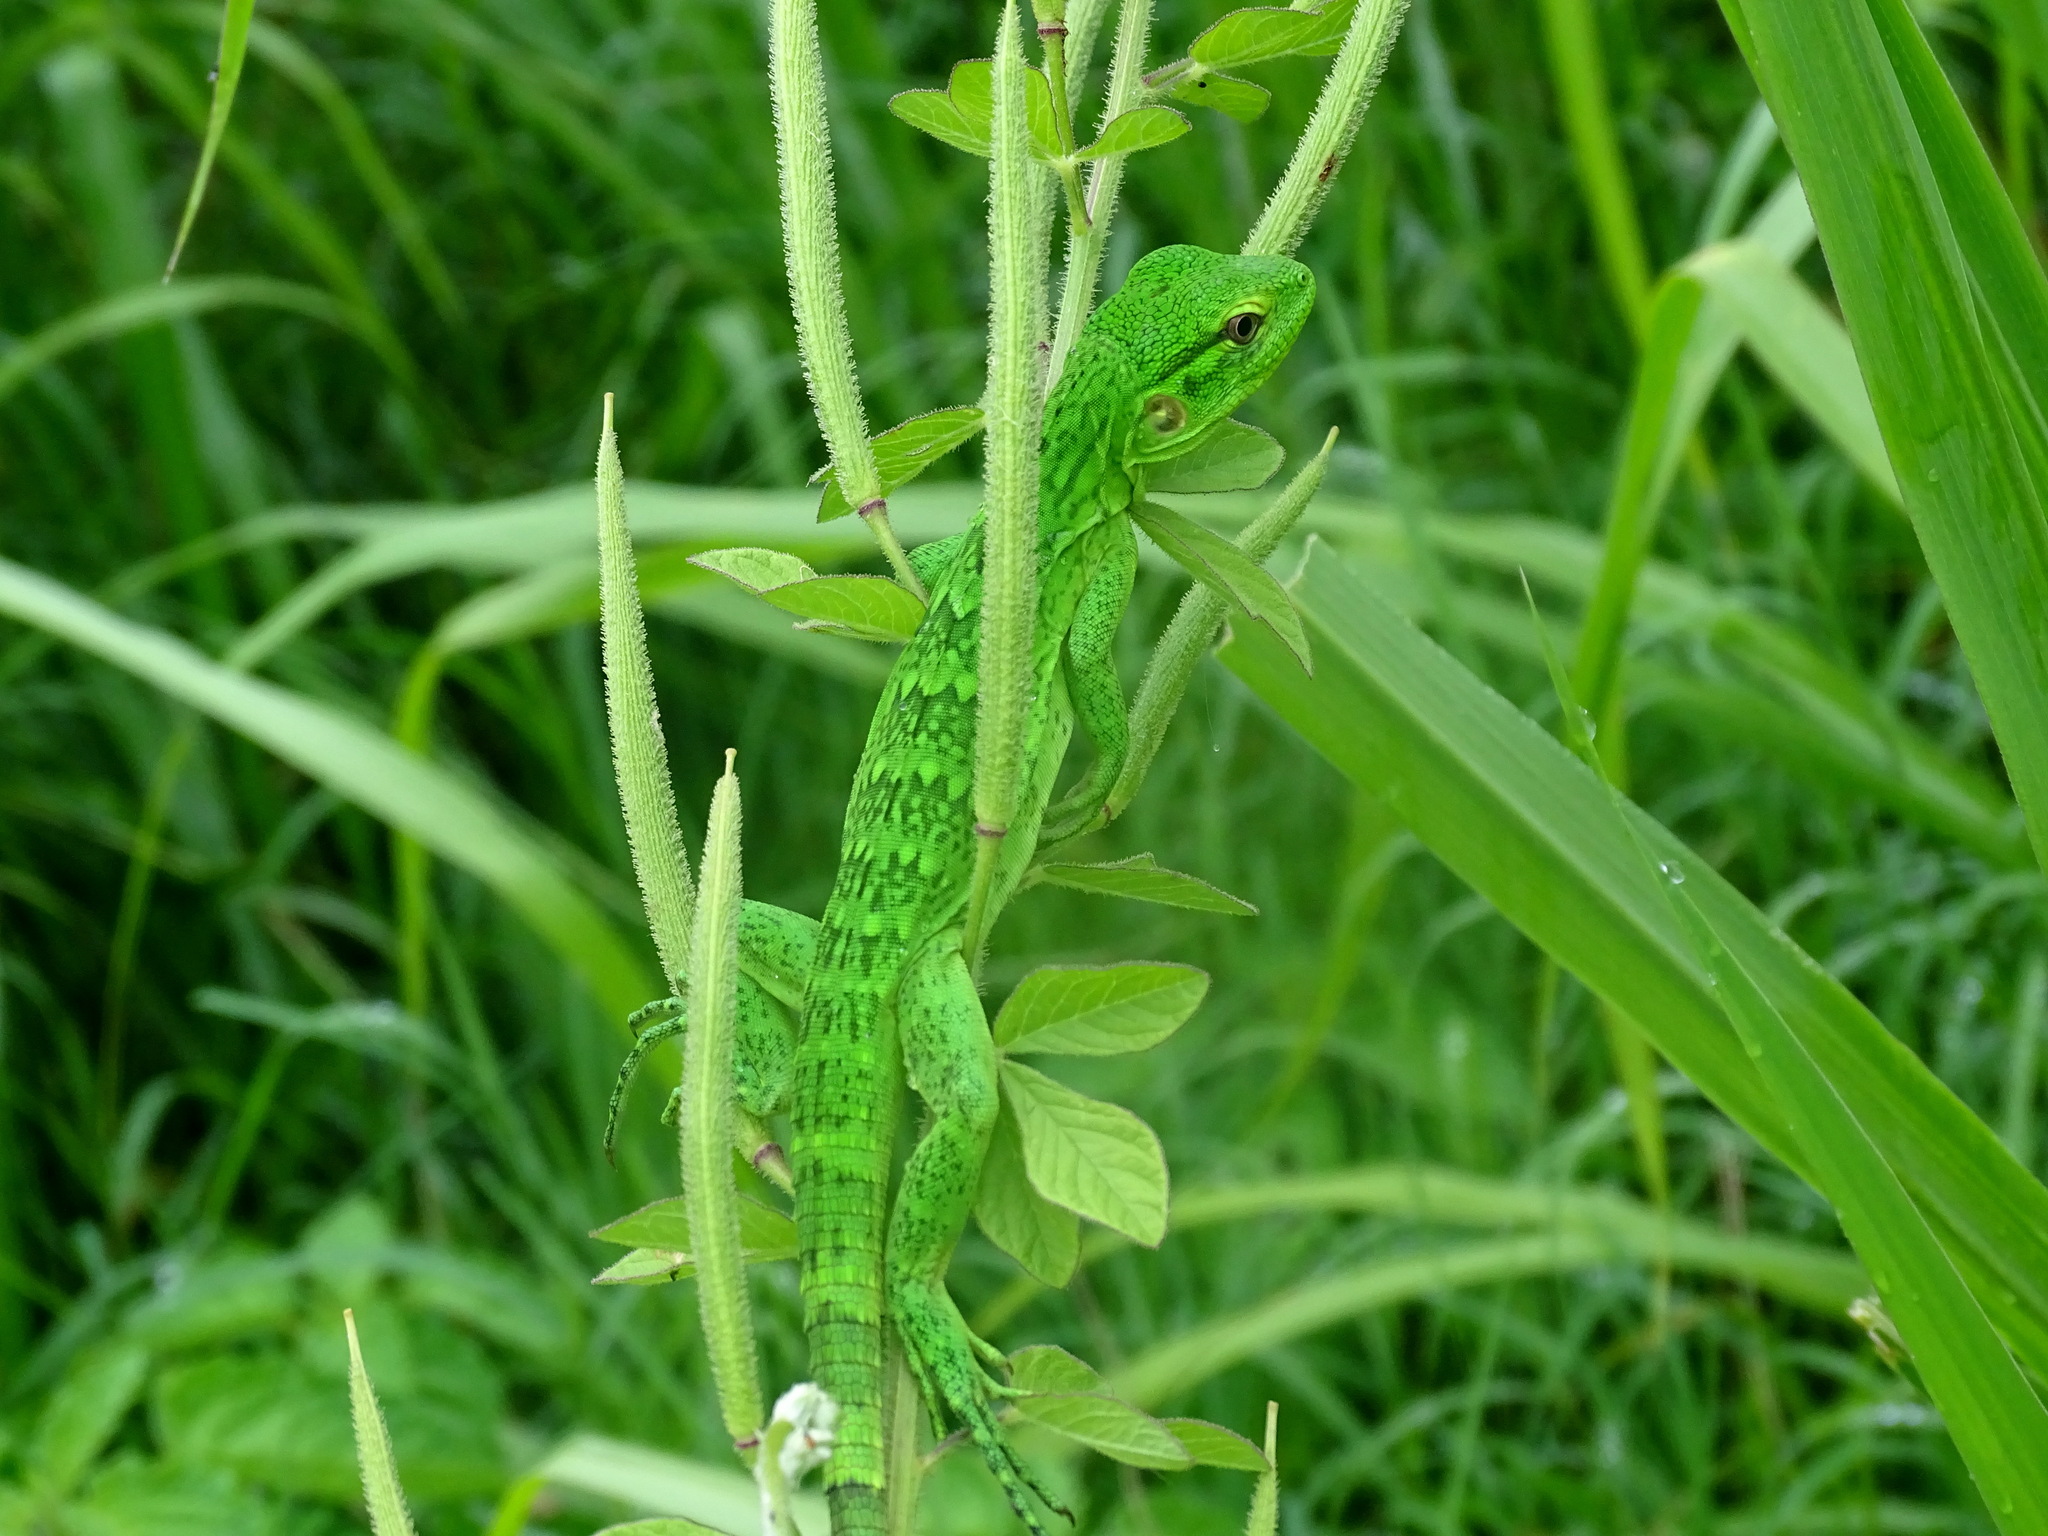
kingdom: Animalia
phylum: Chordata
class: Squamata
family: Iguanidae
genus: Ctenosaura
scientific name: Ctenosaura similis
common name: Black spiny-tailed iguana
